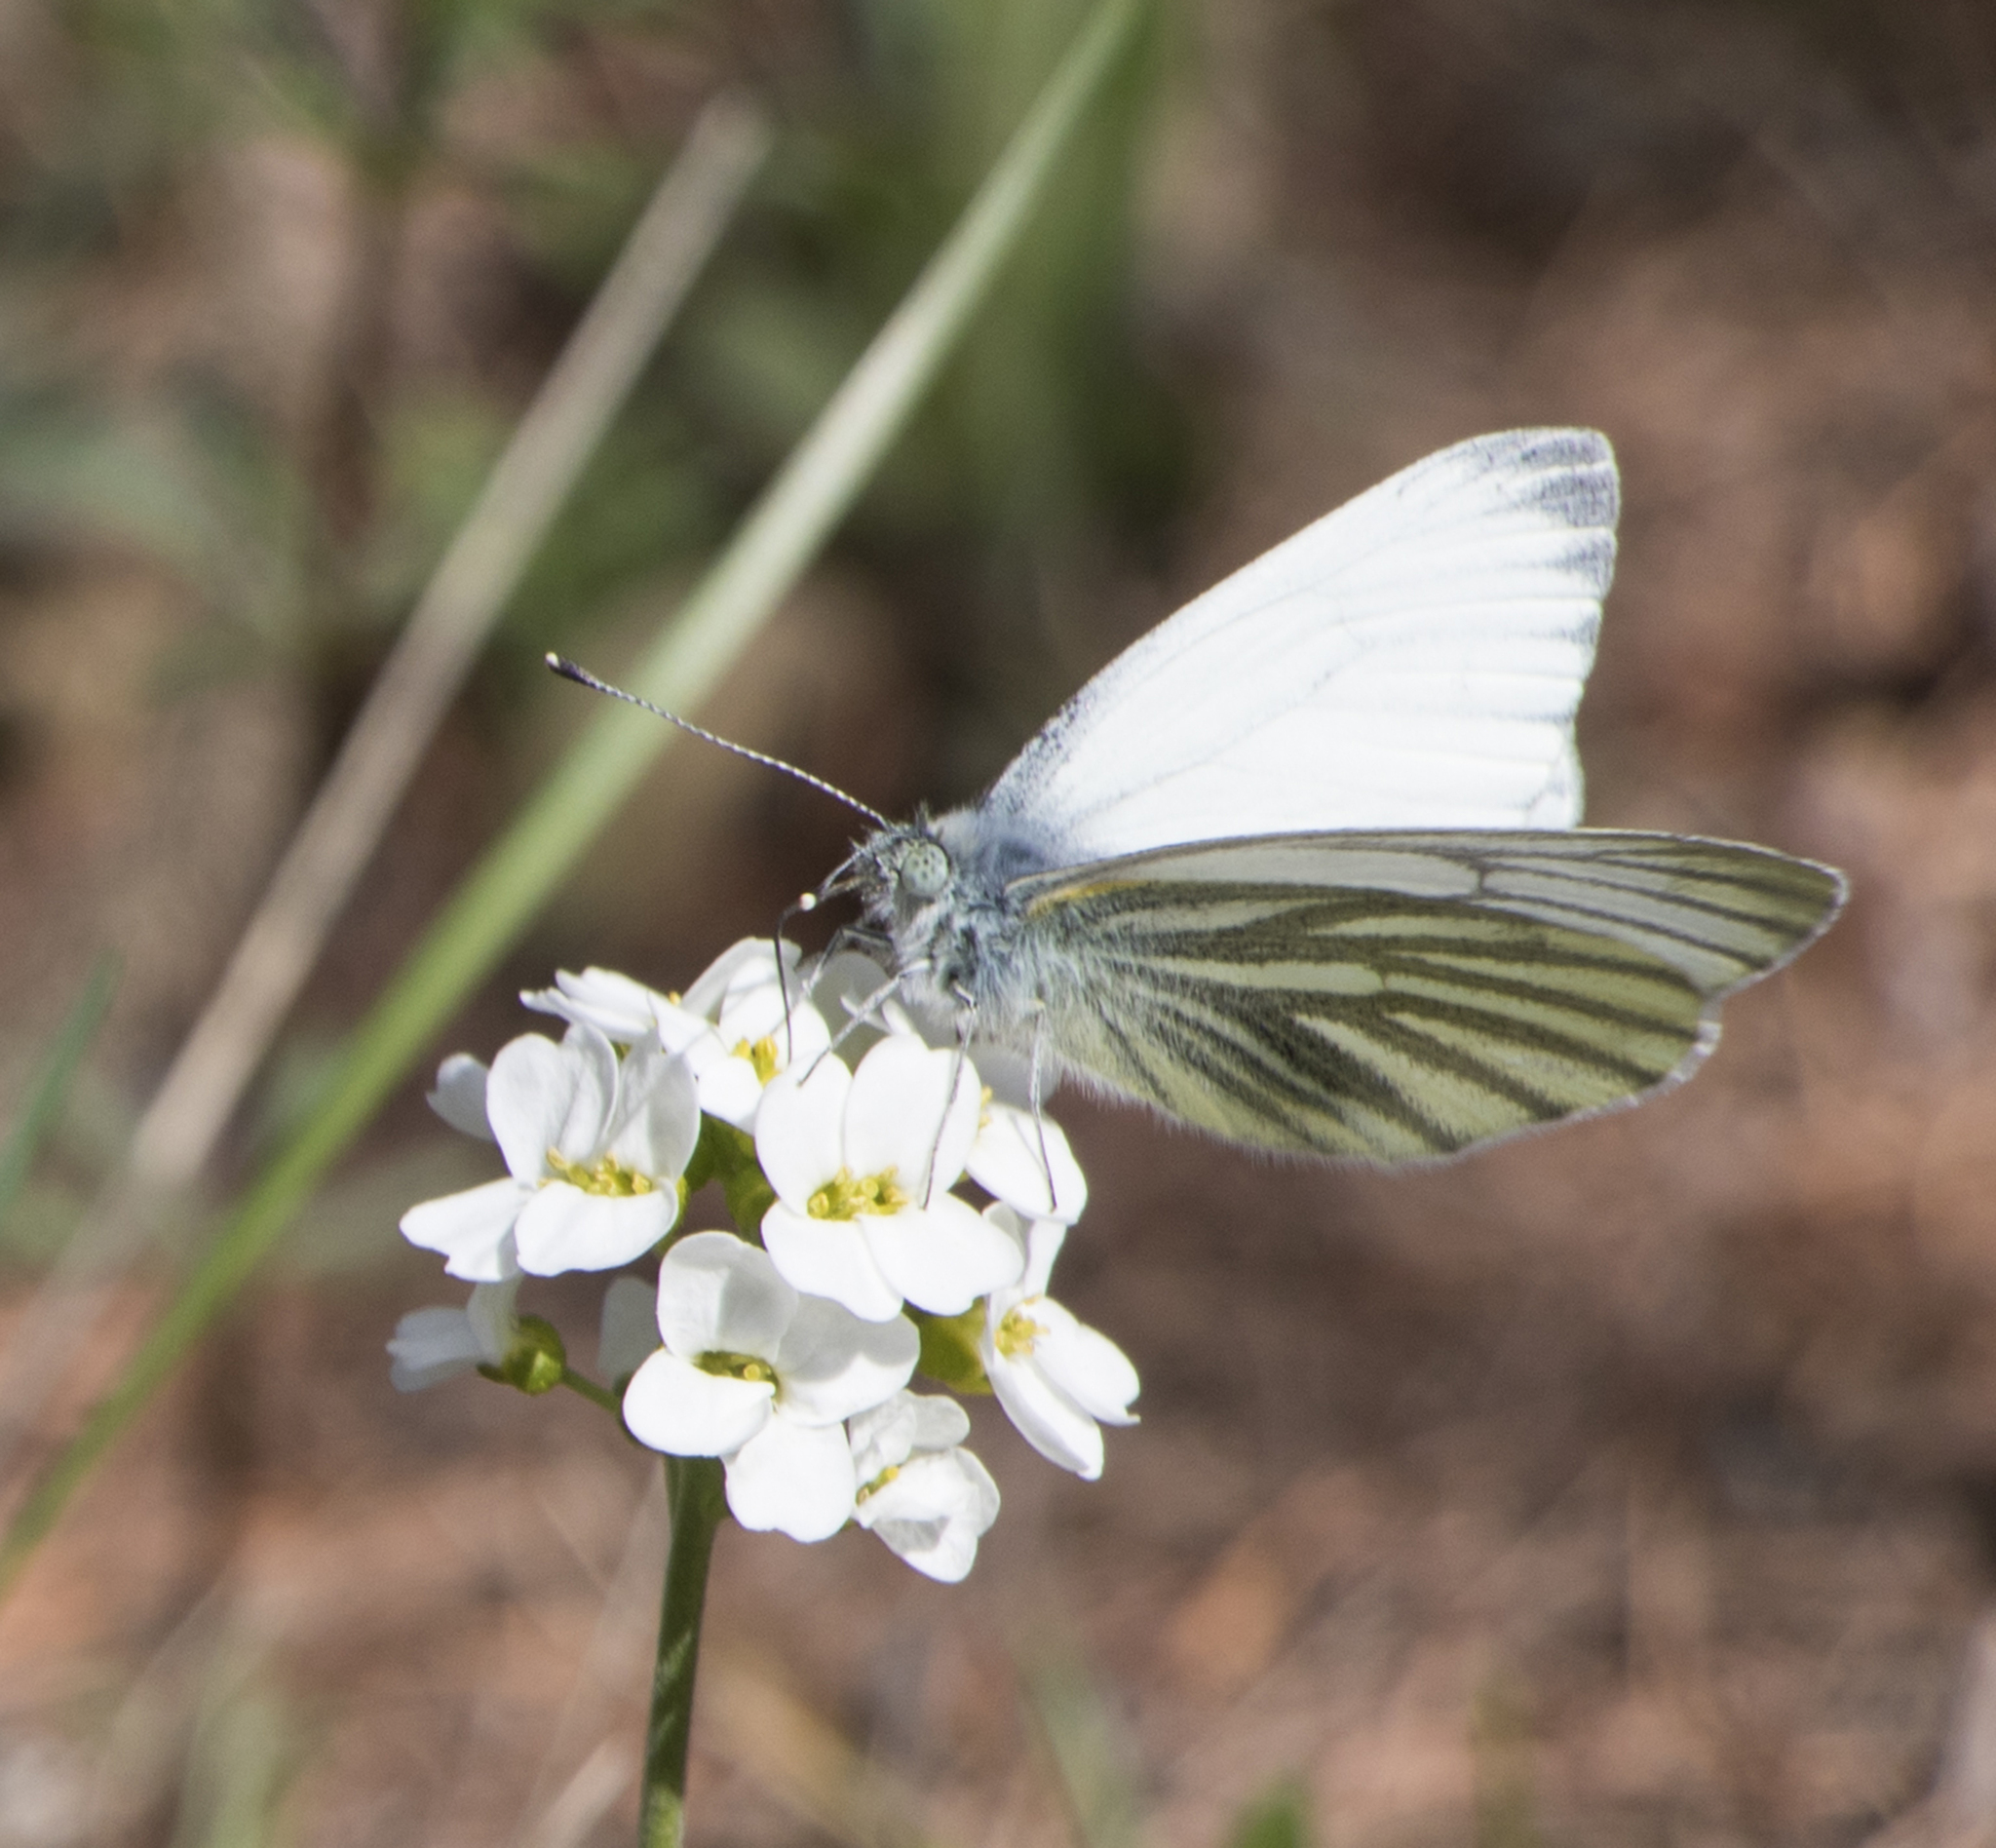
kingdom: Animalia
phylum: Arthropoda
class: Insecta
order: Lepidoptera
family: Pieridae
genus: Pieris
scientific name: Pieris napi
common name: Green-veined white
